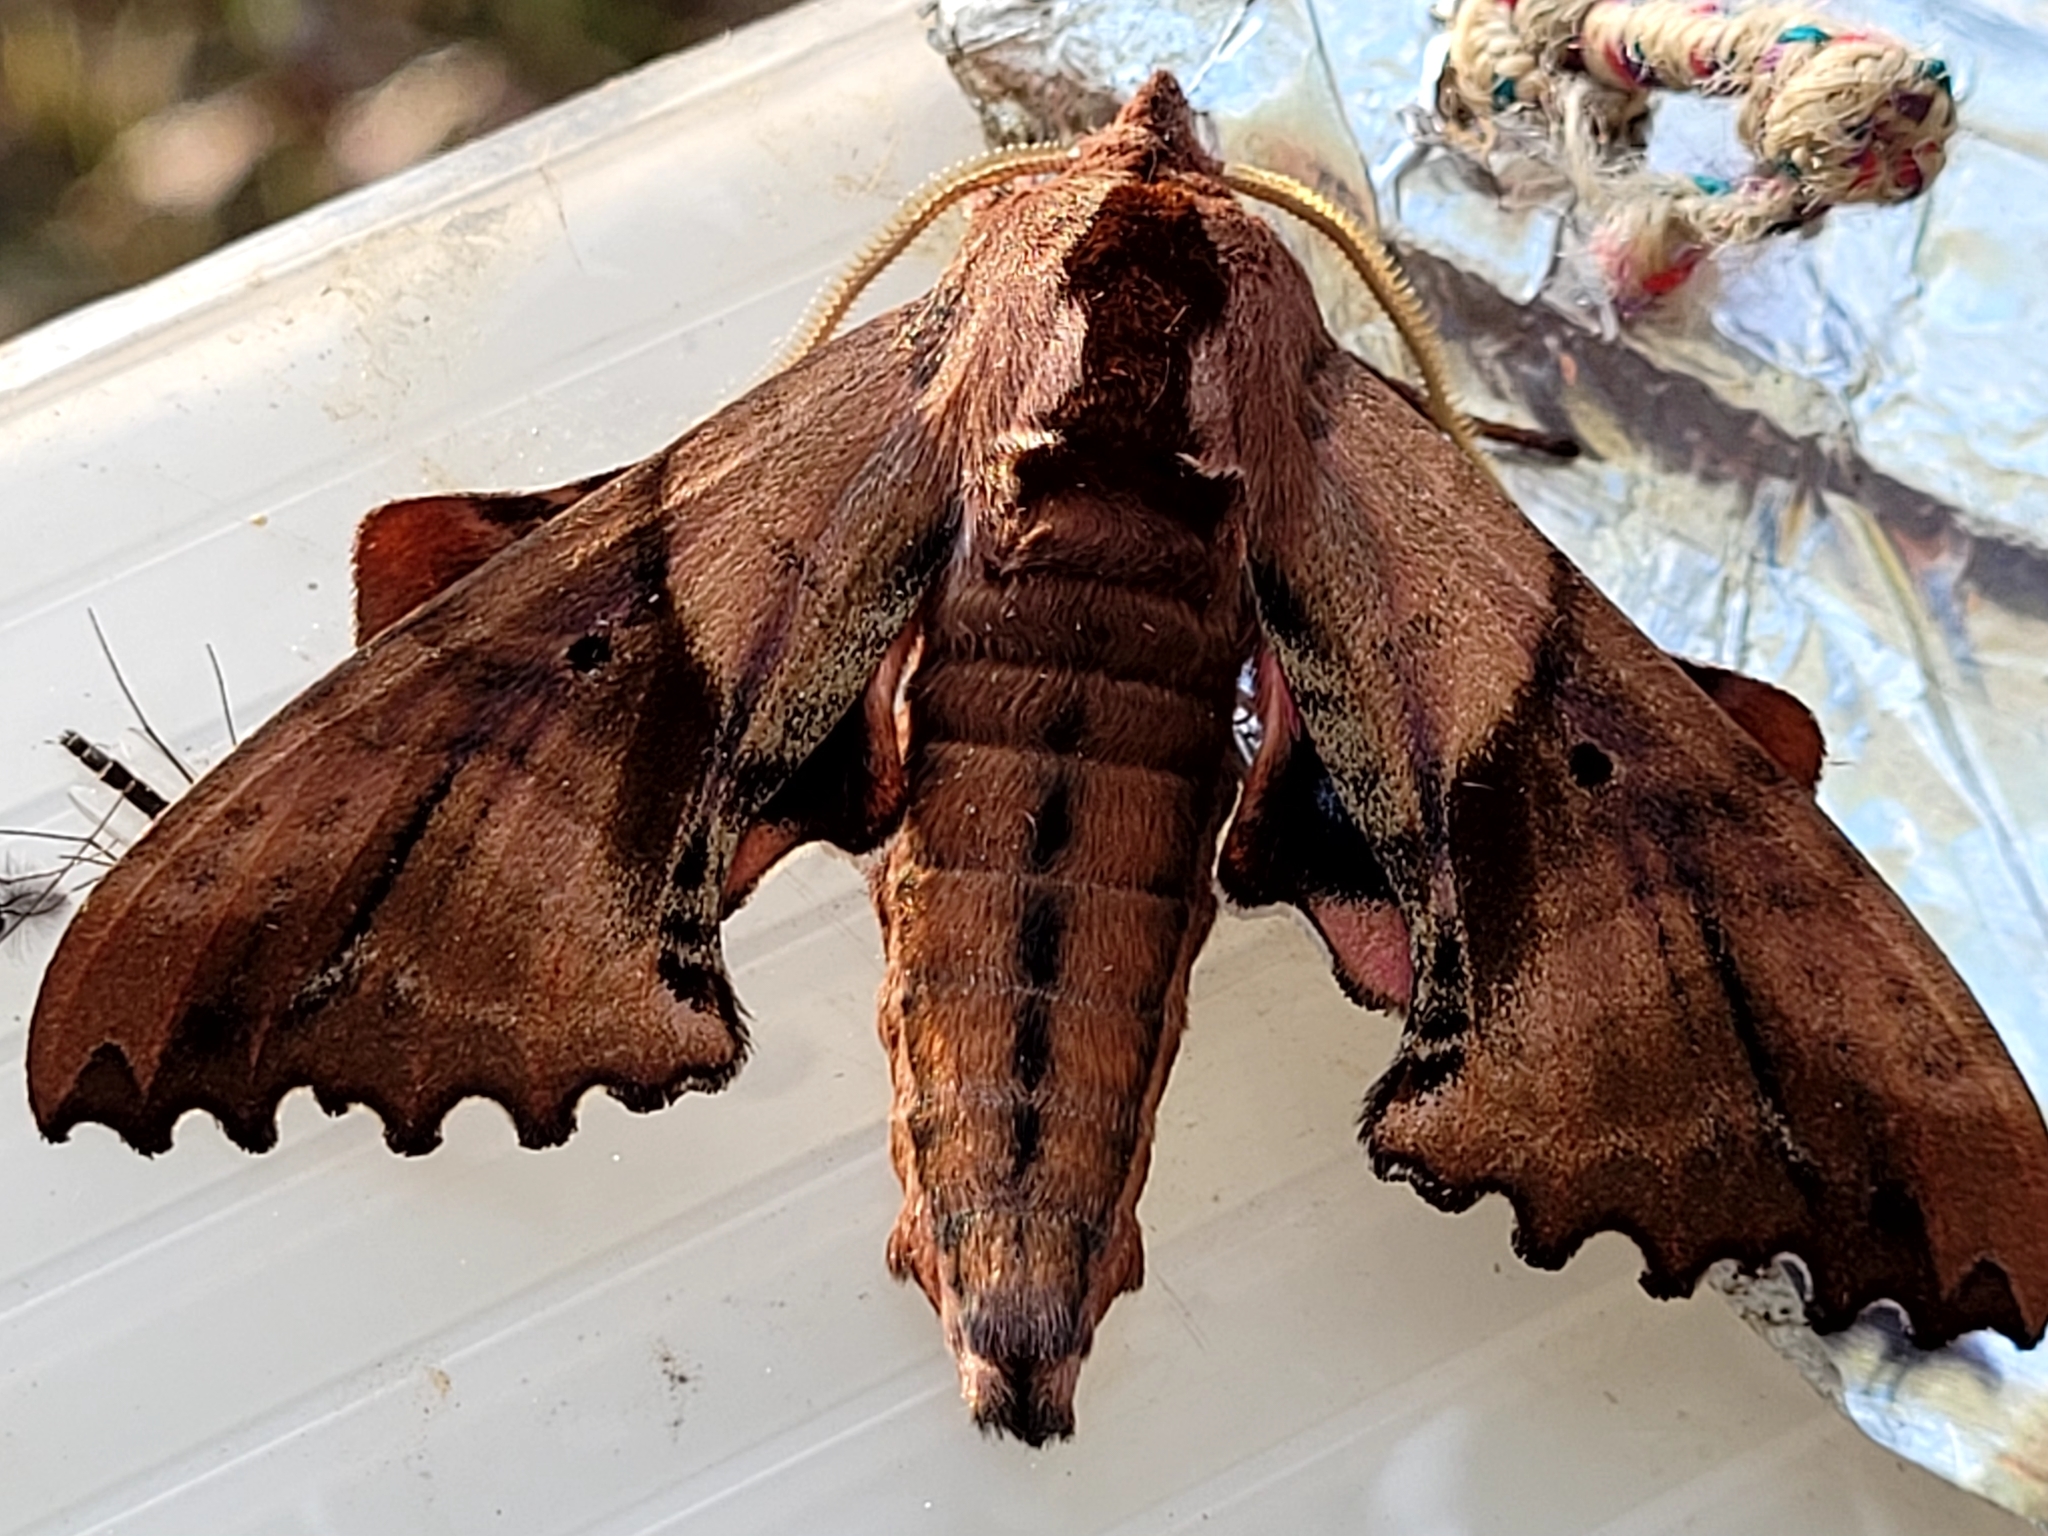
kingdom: Animalia
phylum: Arthropoda
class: Insecta
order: Lepidoptera
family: Sphingidae
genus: Paonias
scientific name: Paonias excaecata
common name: Blind-eyed sphinx
